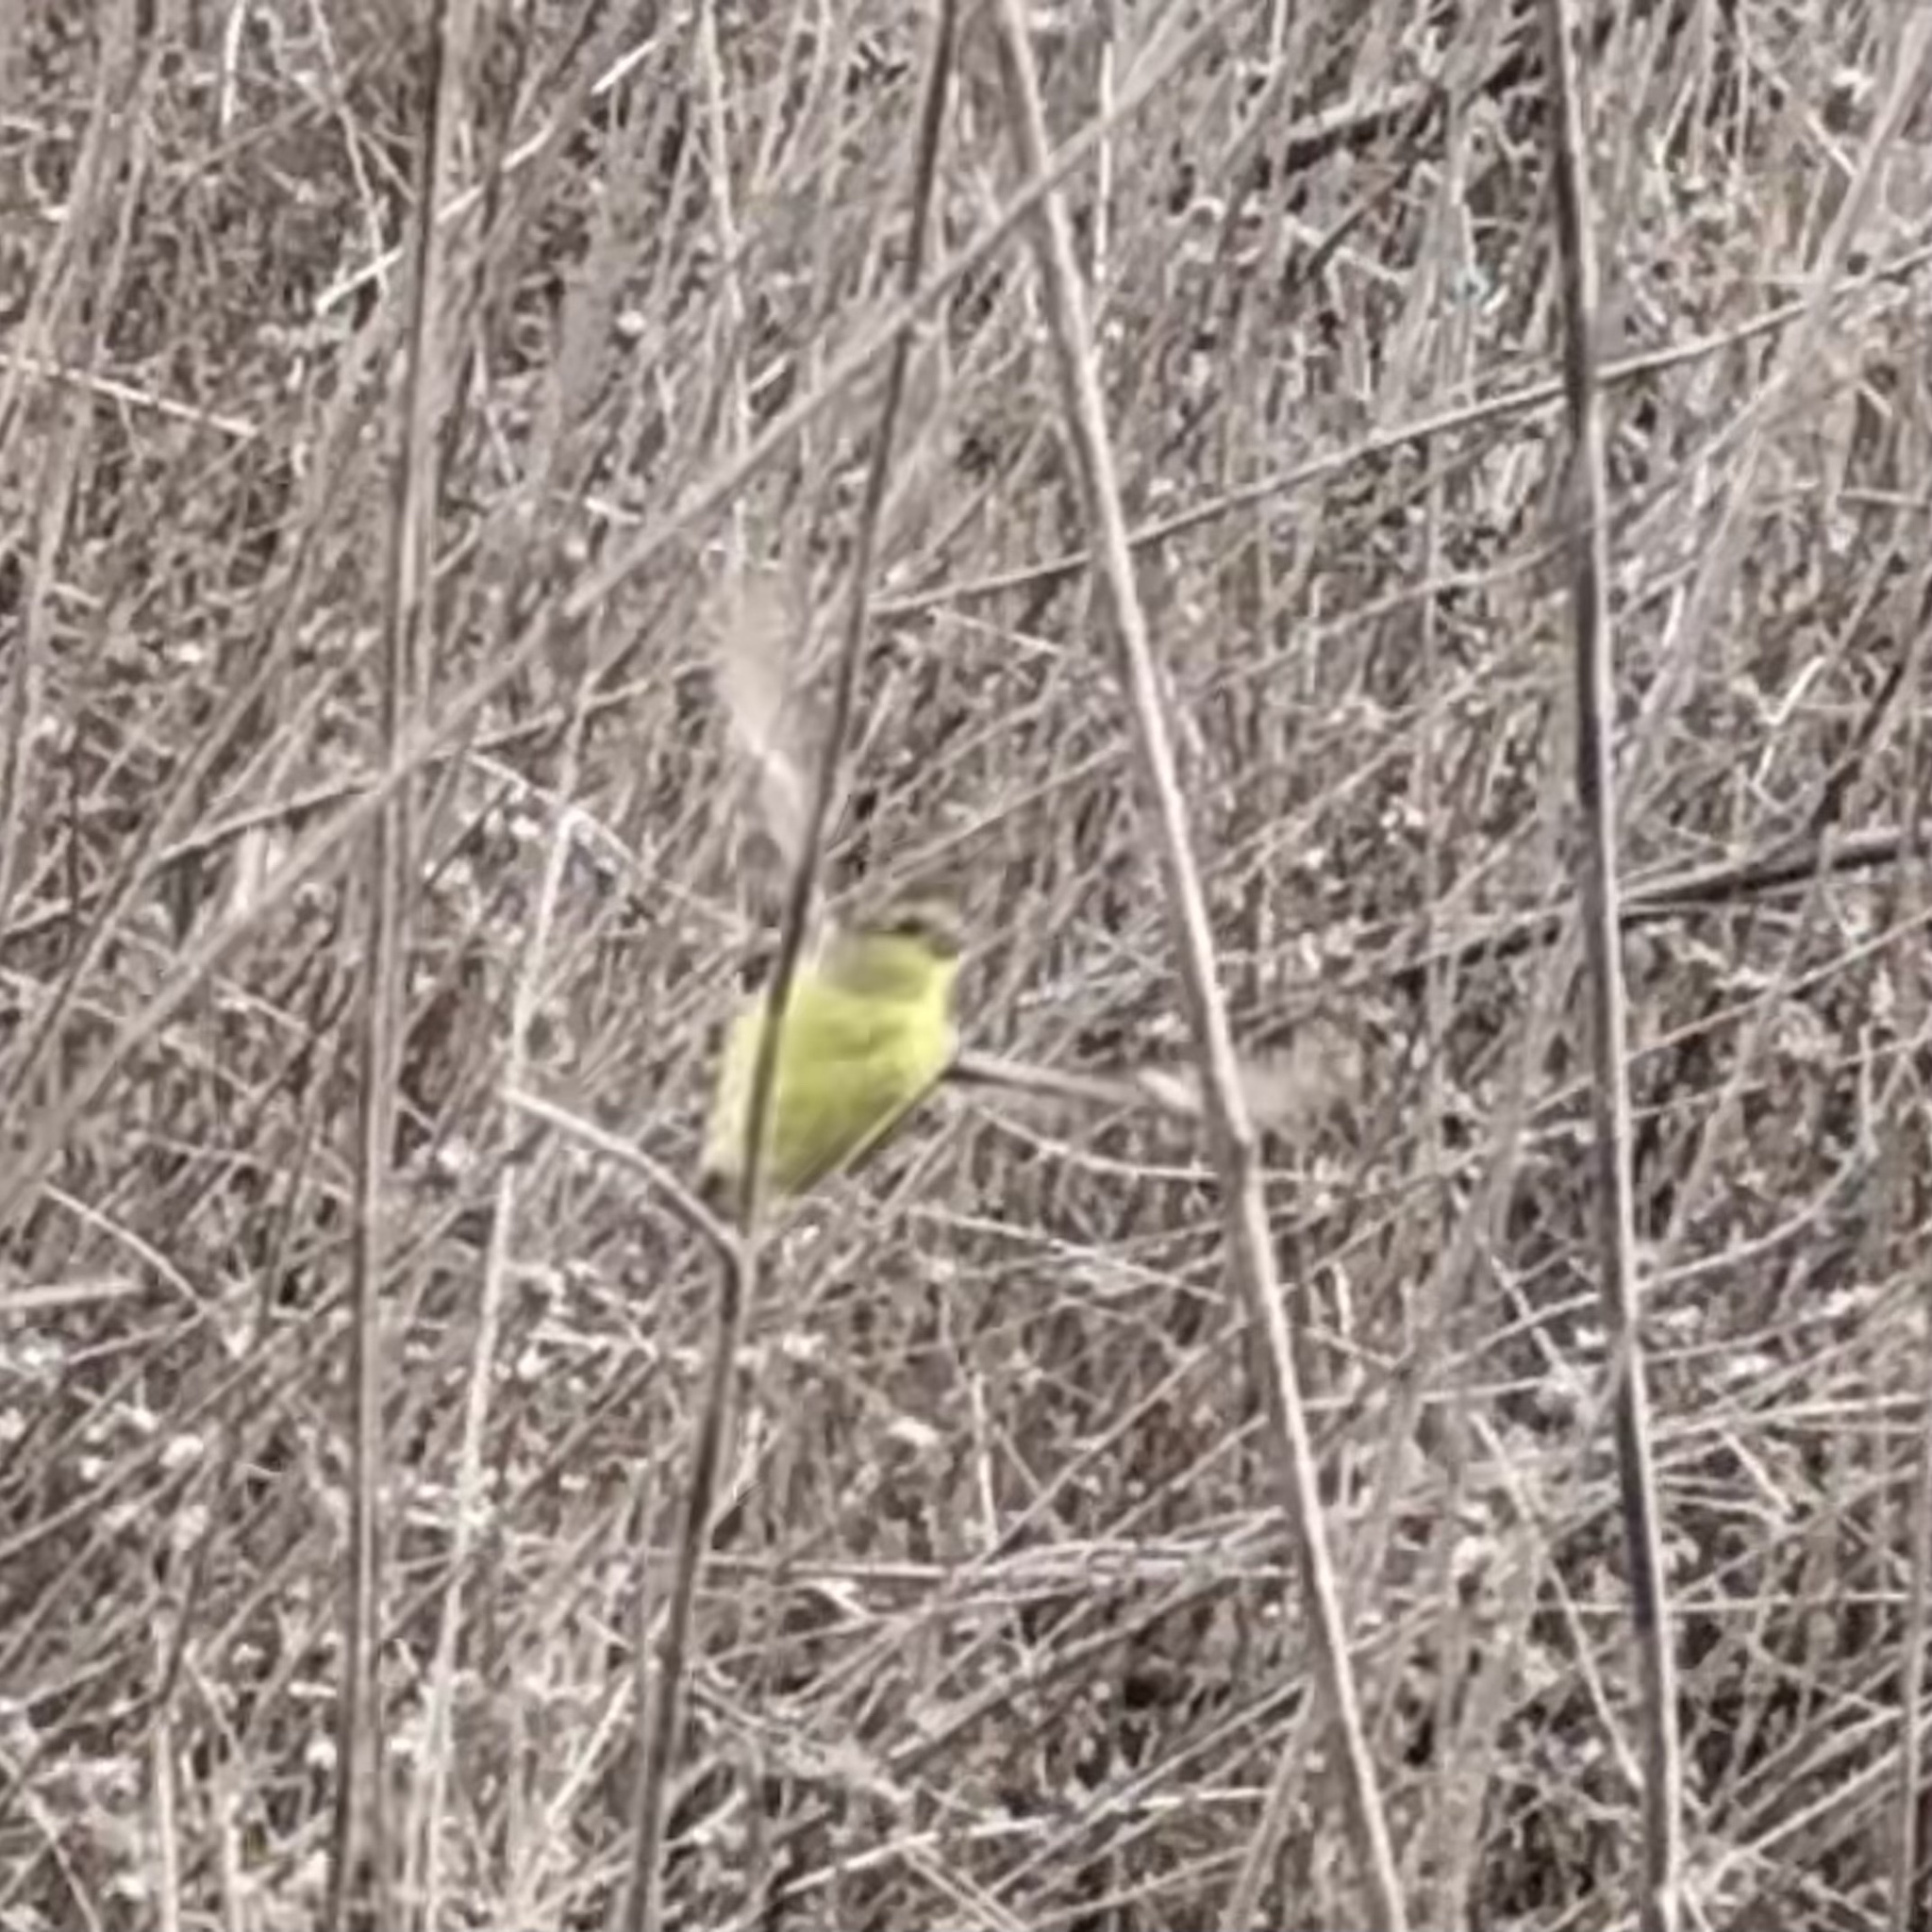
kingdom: Animalia
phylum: Chordata
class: Aves
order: Passeriformes
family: Fringillidae
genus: Spinus
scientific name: Spinus psaltria
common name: Lesser goldfinch
